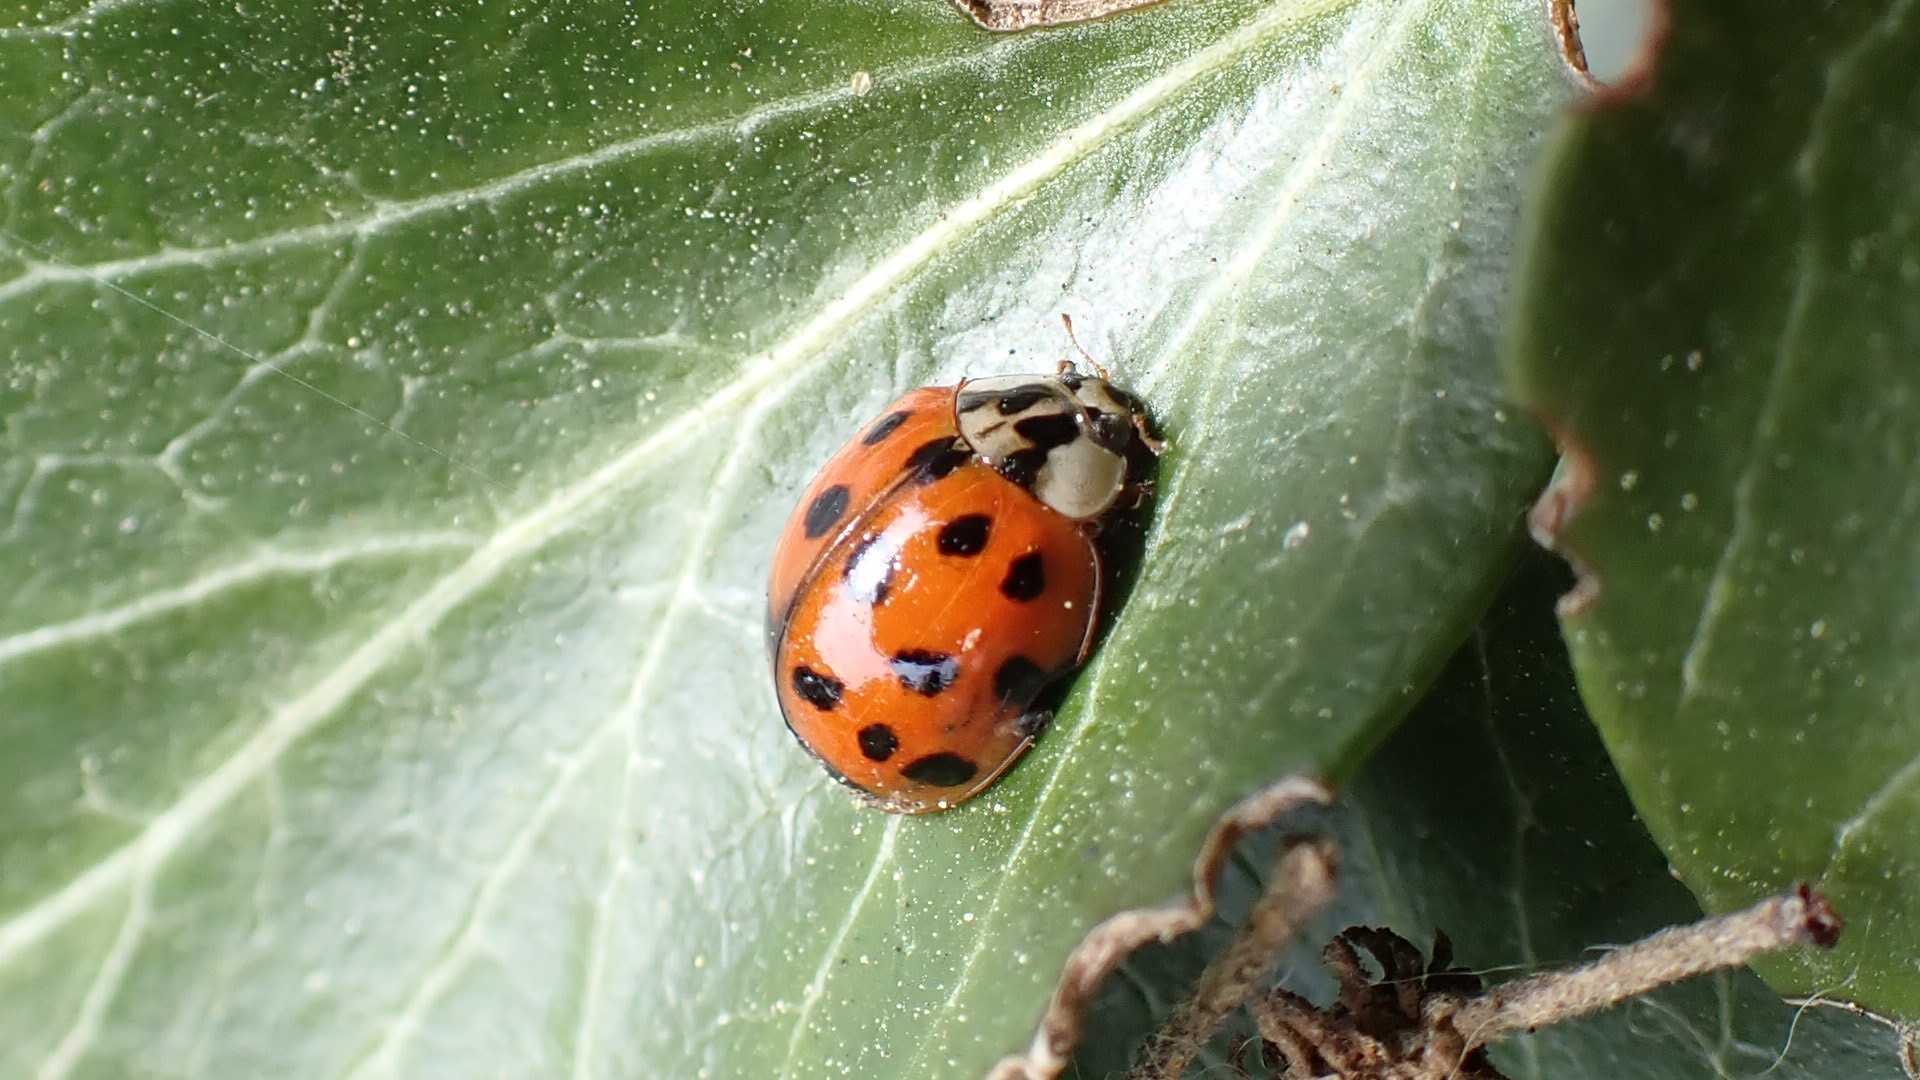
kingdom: Animalia
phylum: Arthropoda
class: Insecta
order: Coleoptera
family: Coccinellidae
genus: Harmonia
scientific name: Harmonia axyridis
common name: Harlequin ladybird
